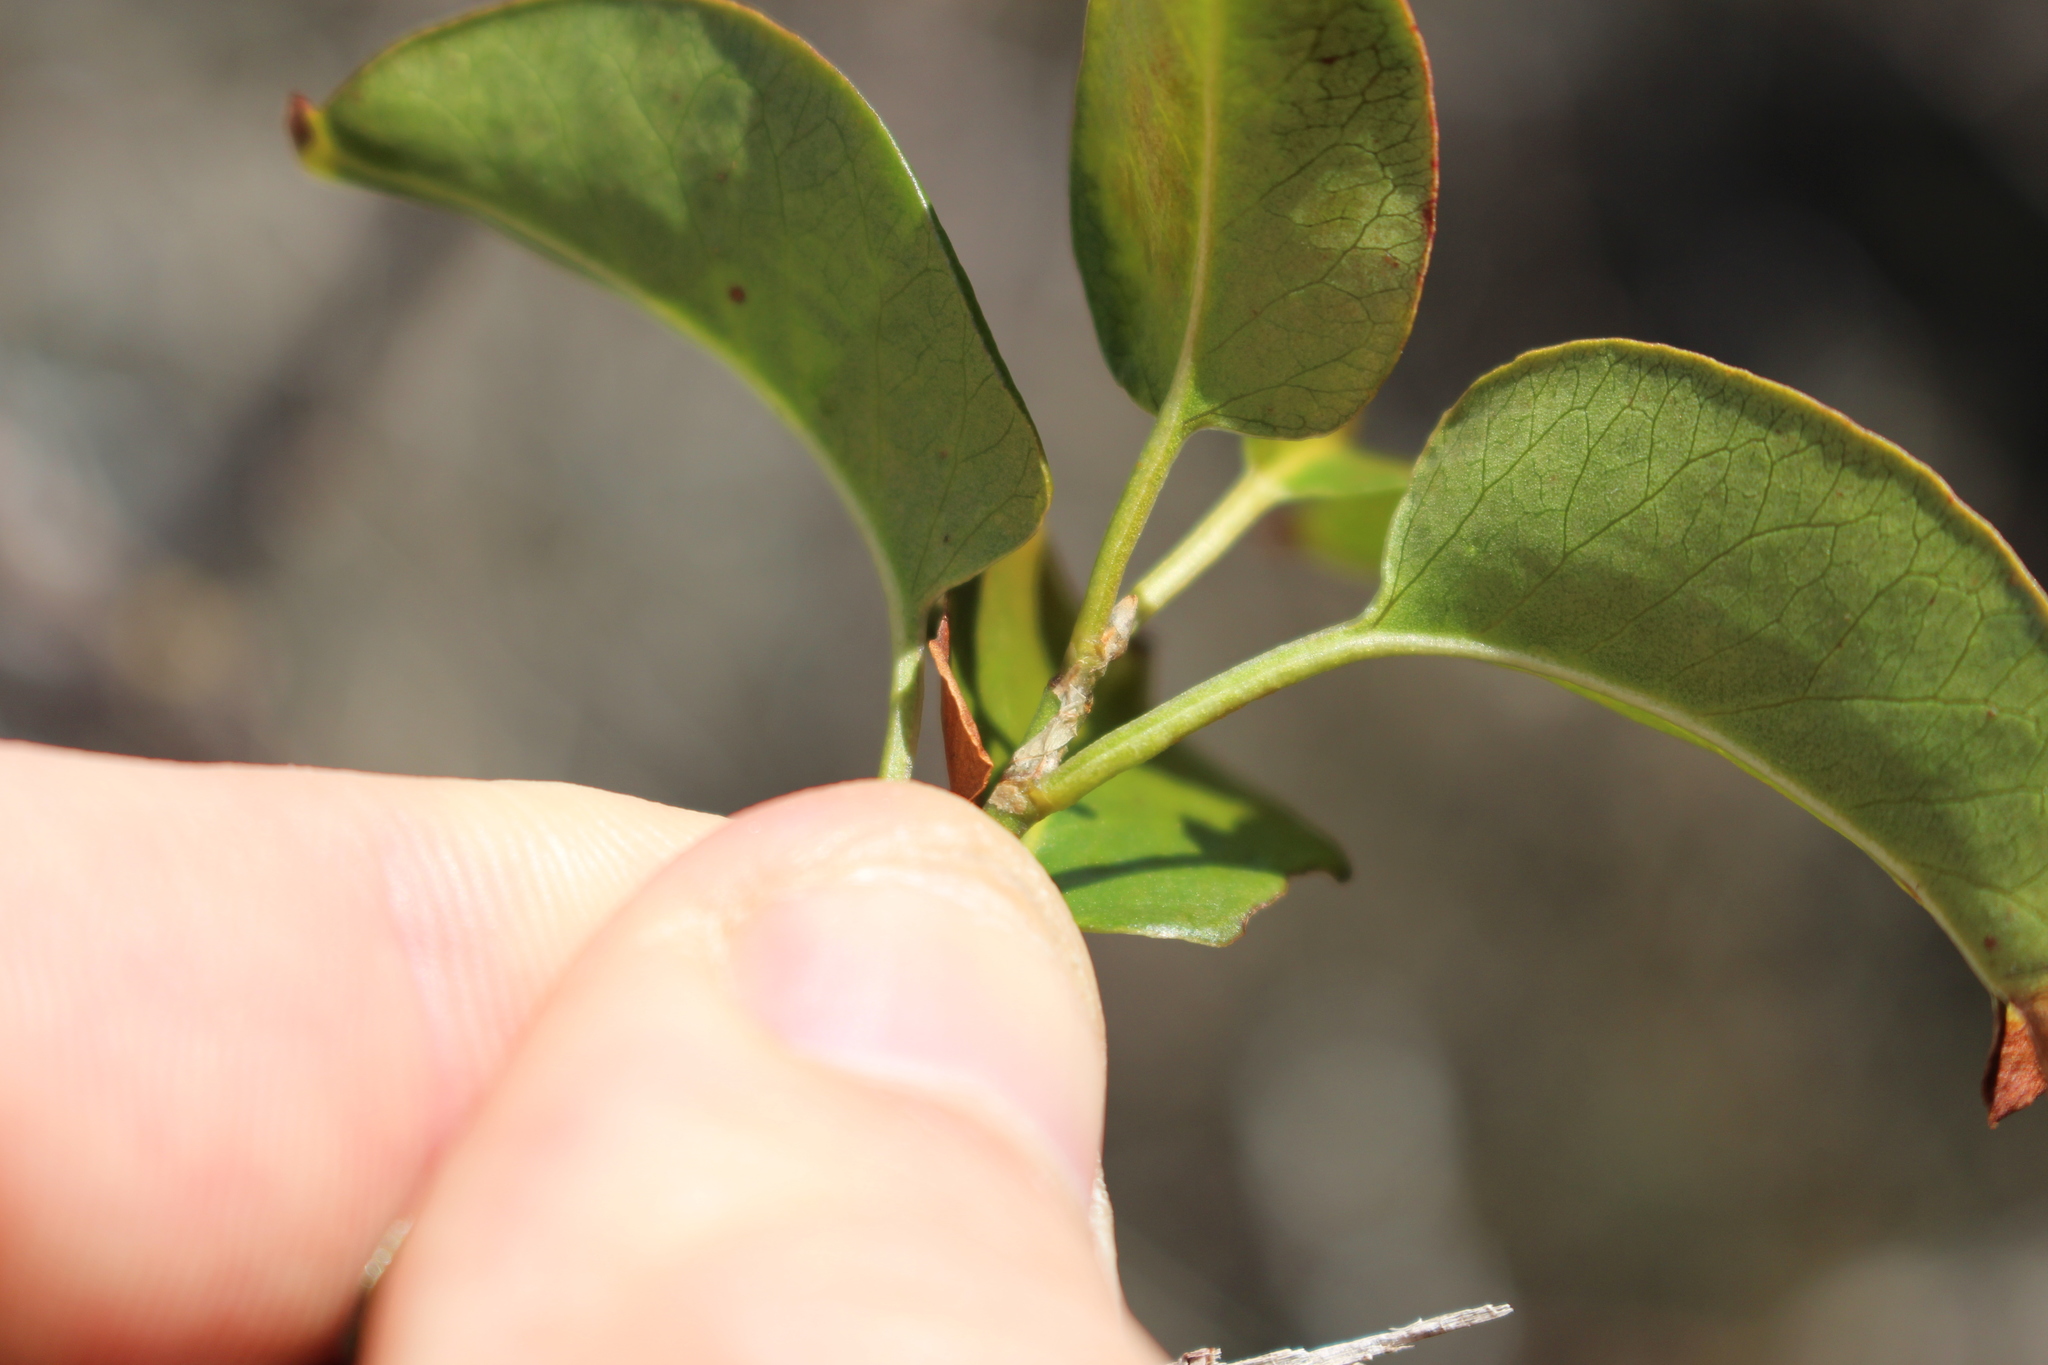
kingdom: Plantae
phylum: Tracheophyta
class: Magnoliopsida
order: Caryophyllales
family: Polygonaceae
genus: Muehlenbeckia
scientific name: Muehlenbeckia australis
